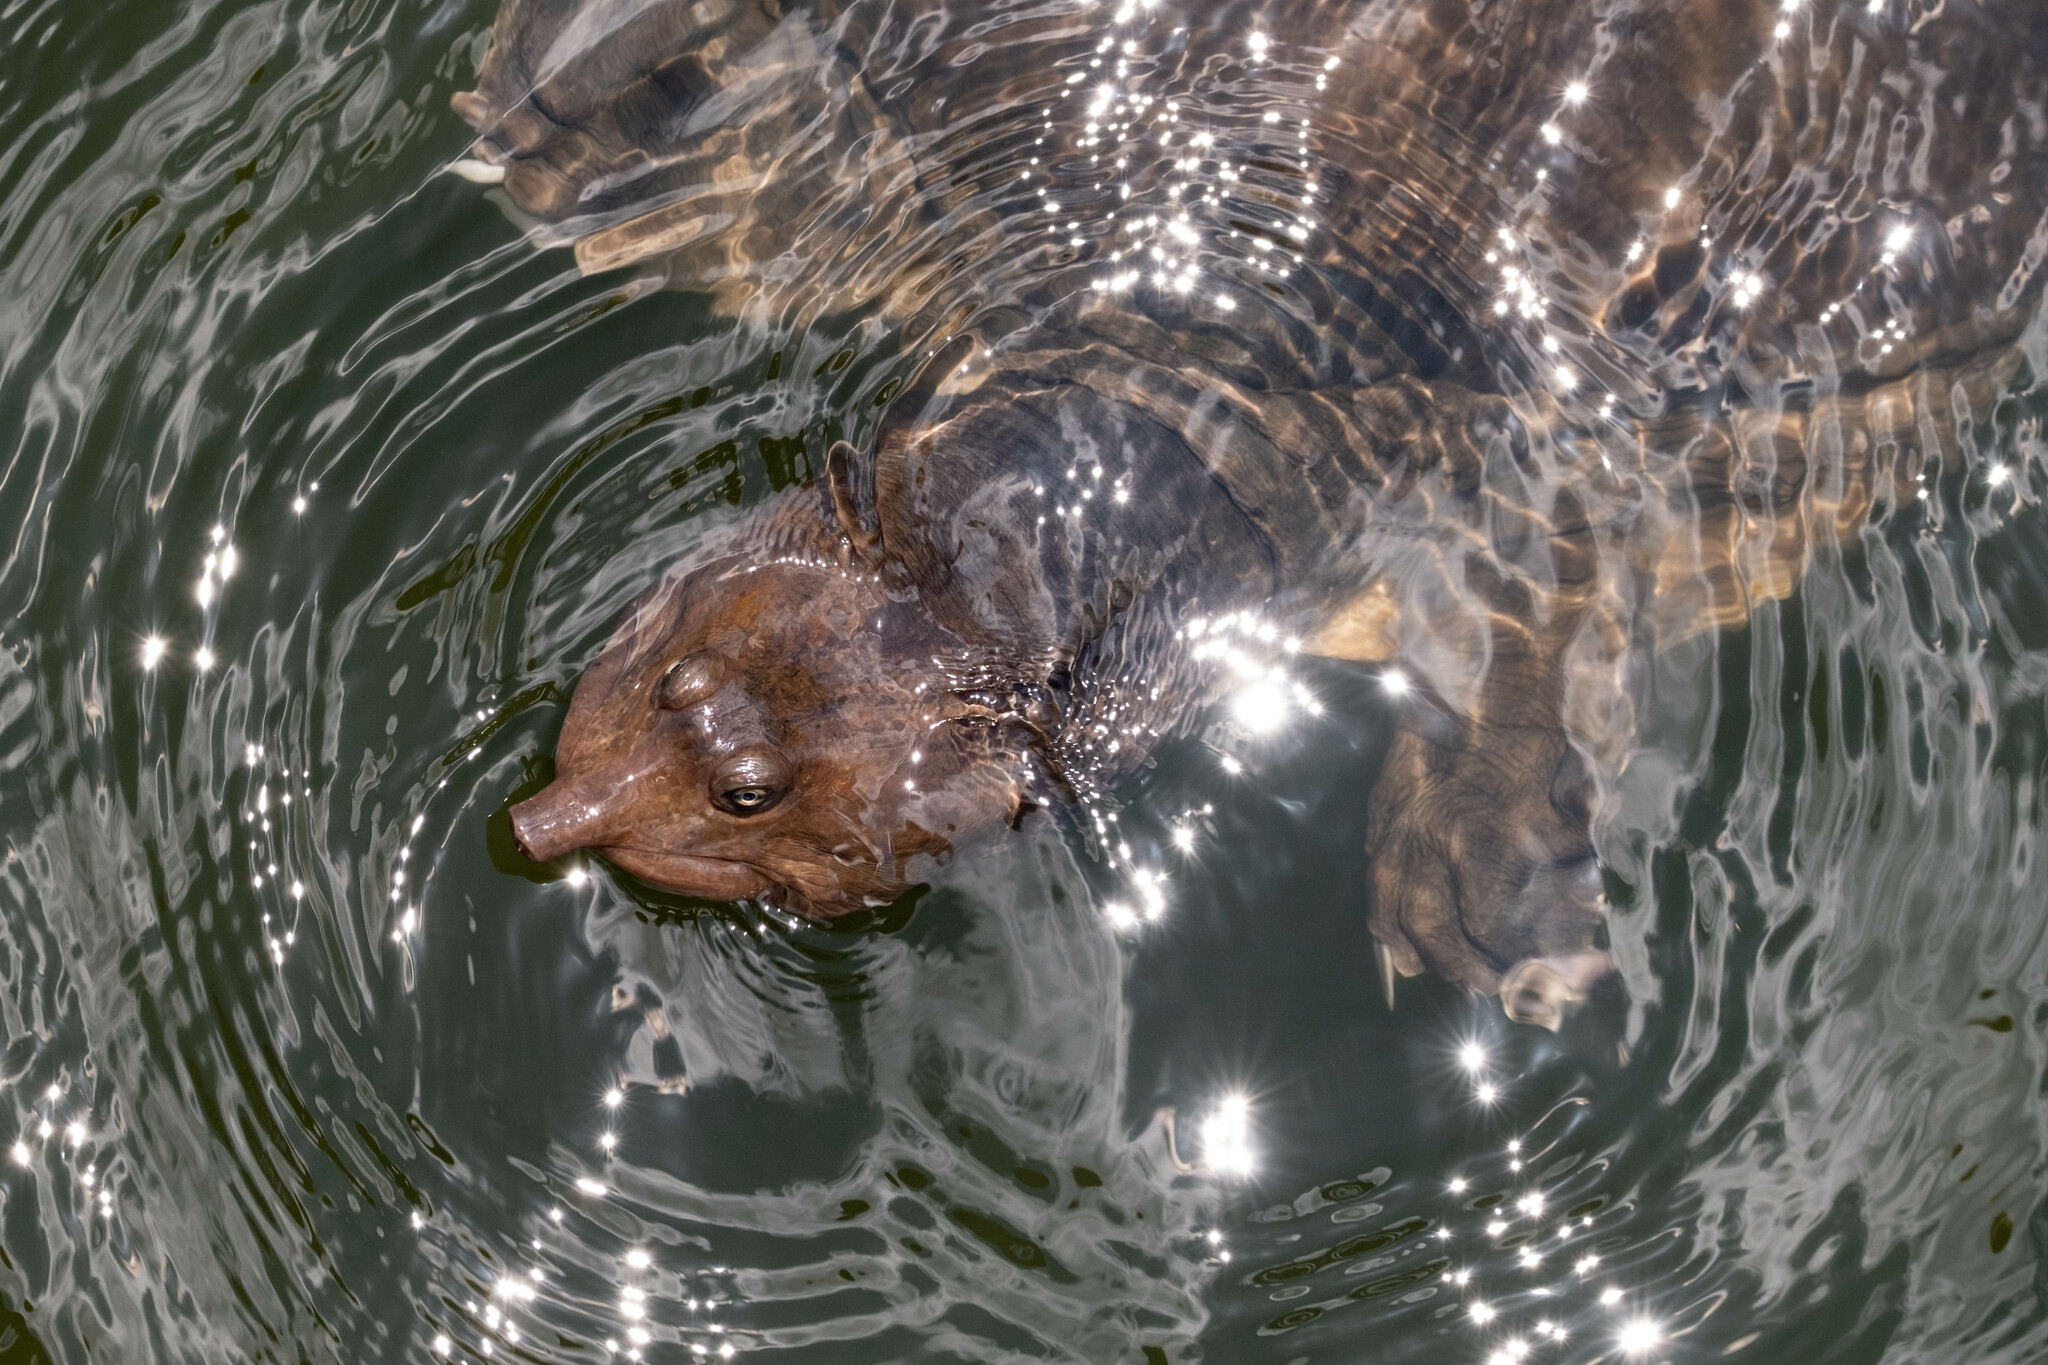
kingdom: Animalia
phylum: Chordata
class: Testudines
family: Trionychidae
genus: Apalone
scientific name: Apalone ferox
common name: Florida softshell turtle
